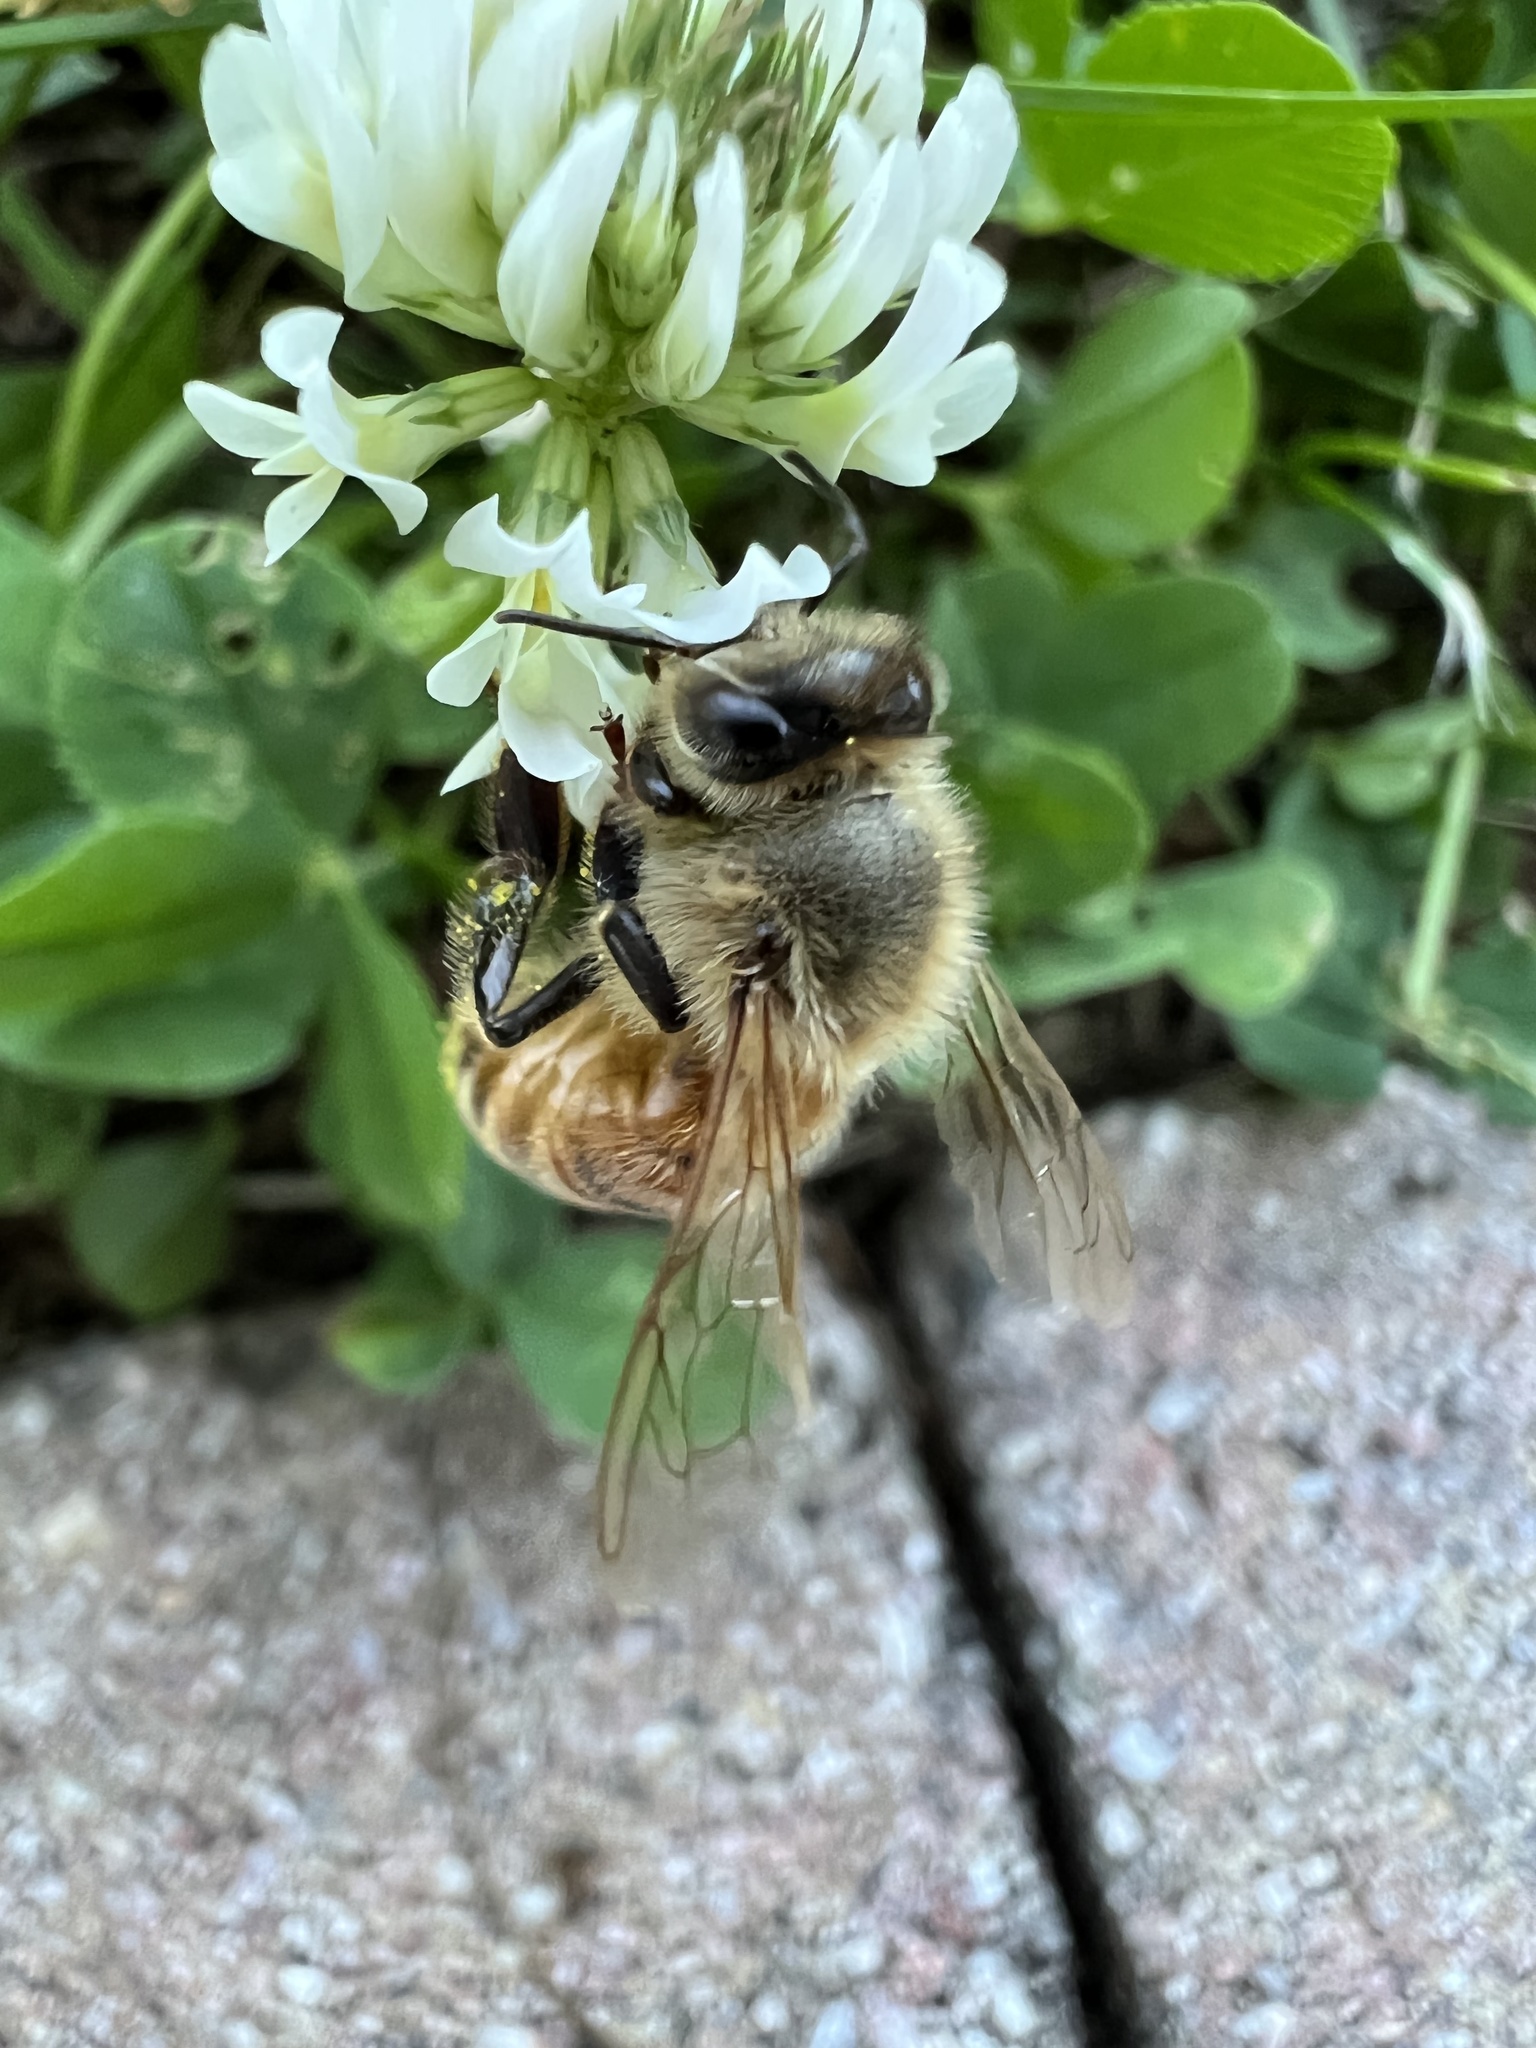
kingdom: Animalia
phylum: Arthropoda
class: Insecta
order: Hymenoptera
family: Apidae
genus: Apis
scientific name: Apis mellifera
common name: Honey bee
